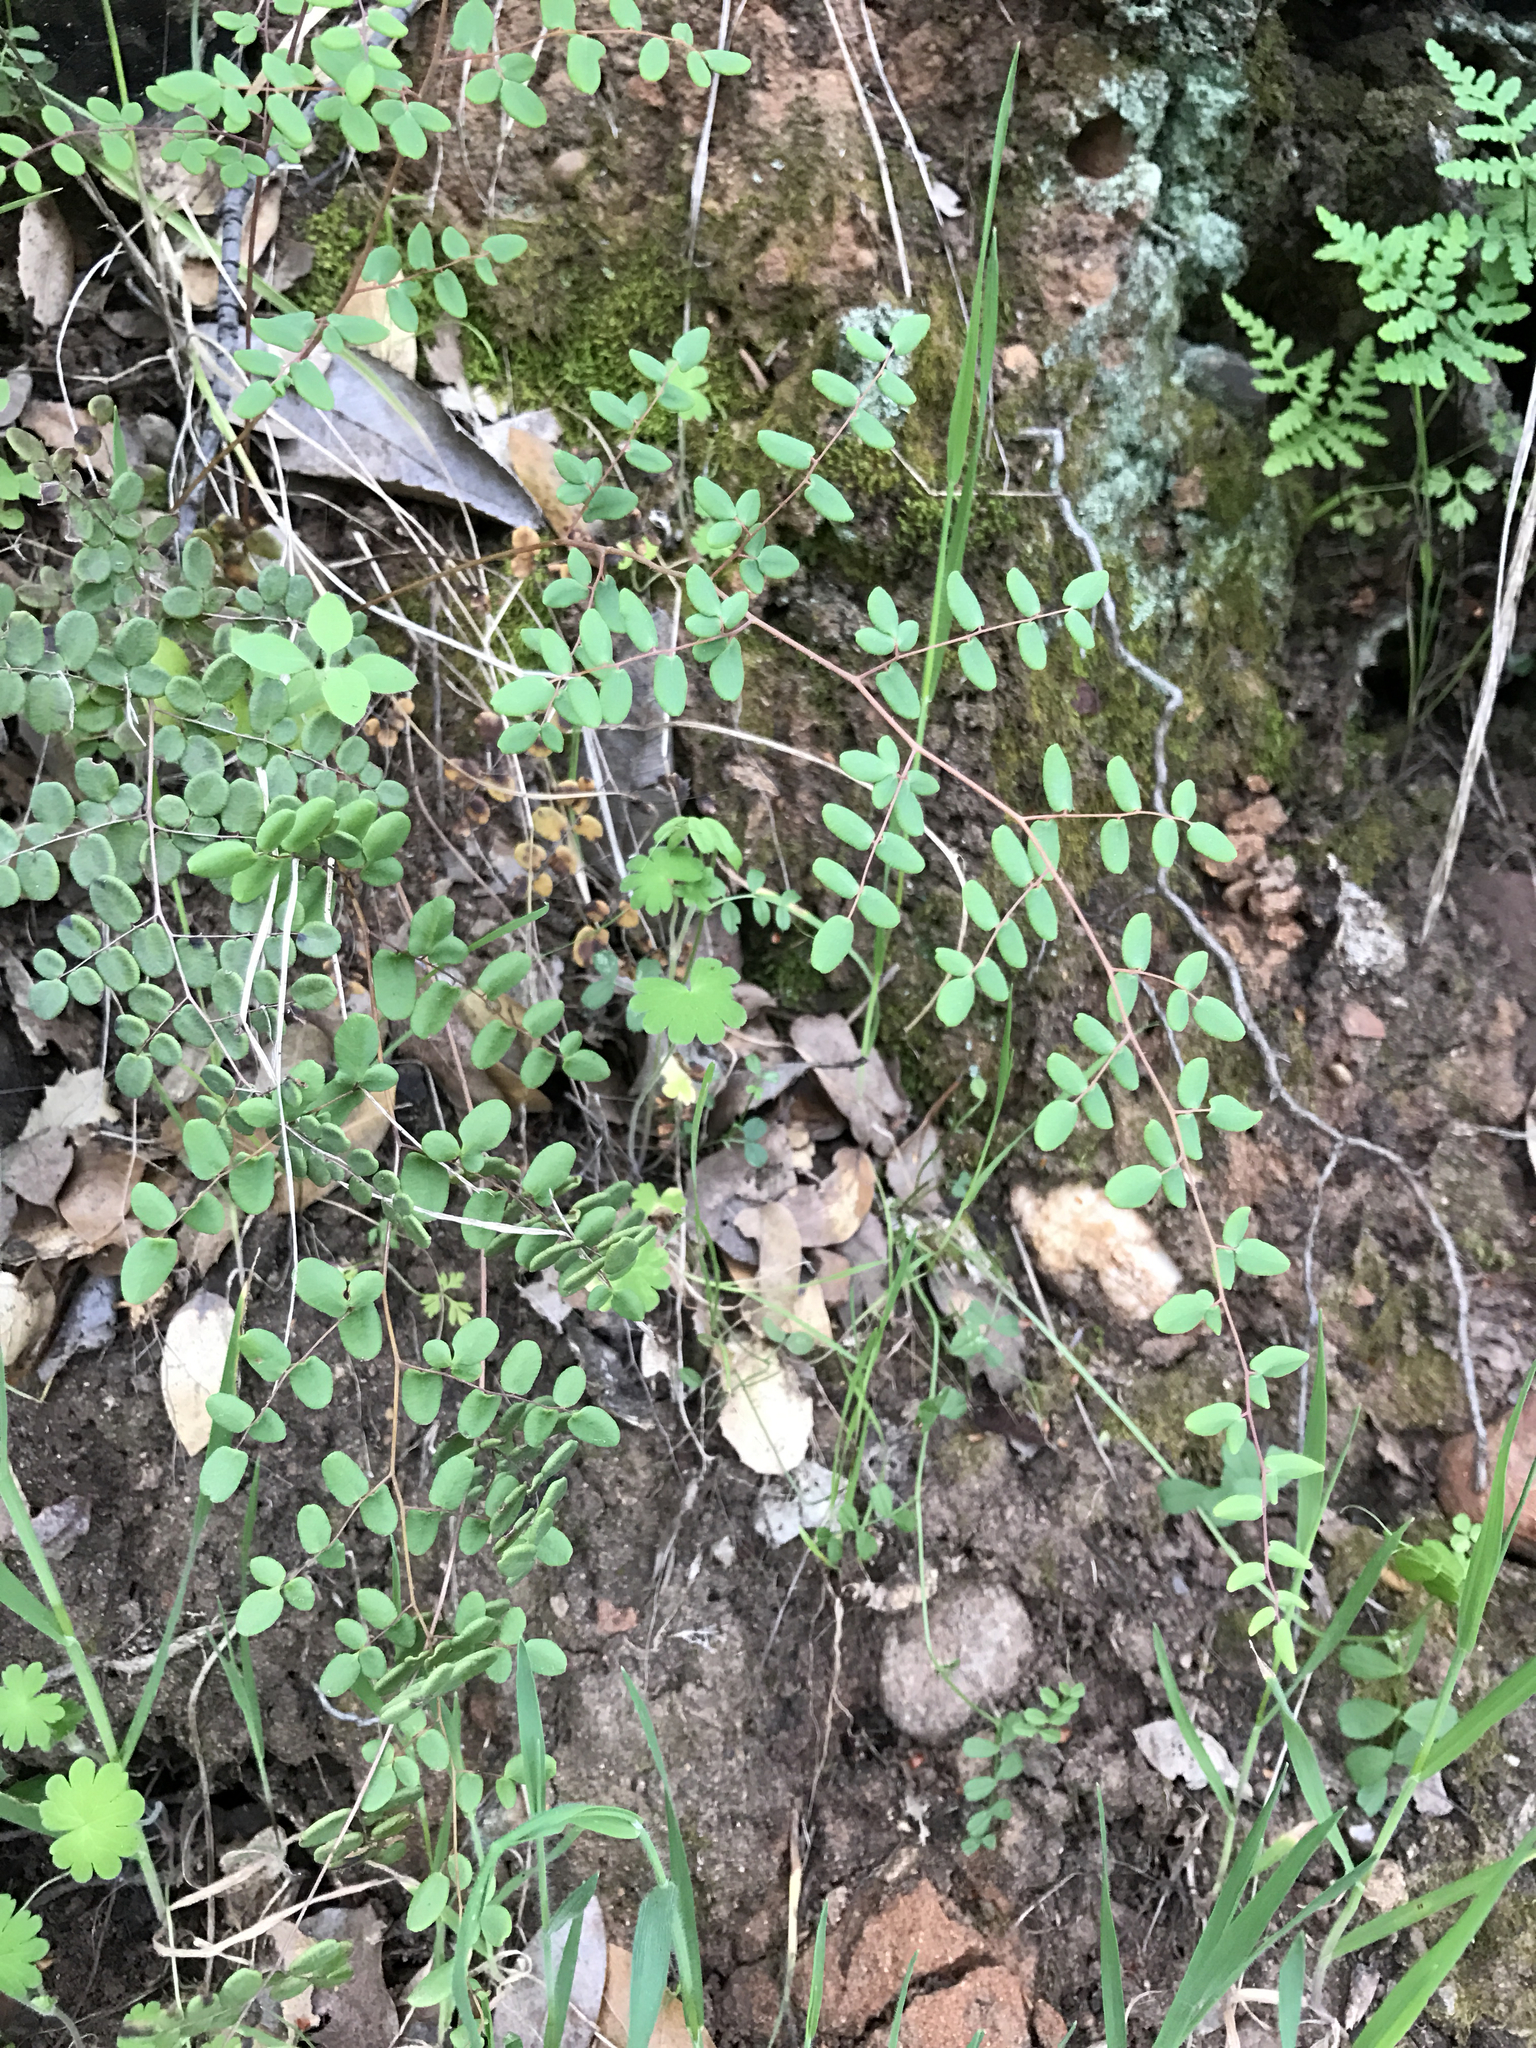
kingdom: Plantae
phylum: Tracheophyta
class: Polypodiopsida
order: Polypodiales
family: Pteridaceae
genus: Pellaea
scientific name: Pellaea andromedifolia
